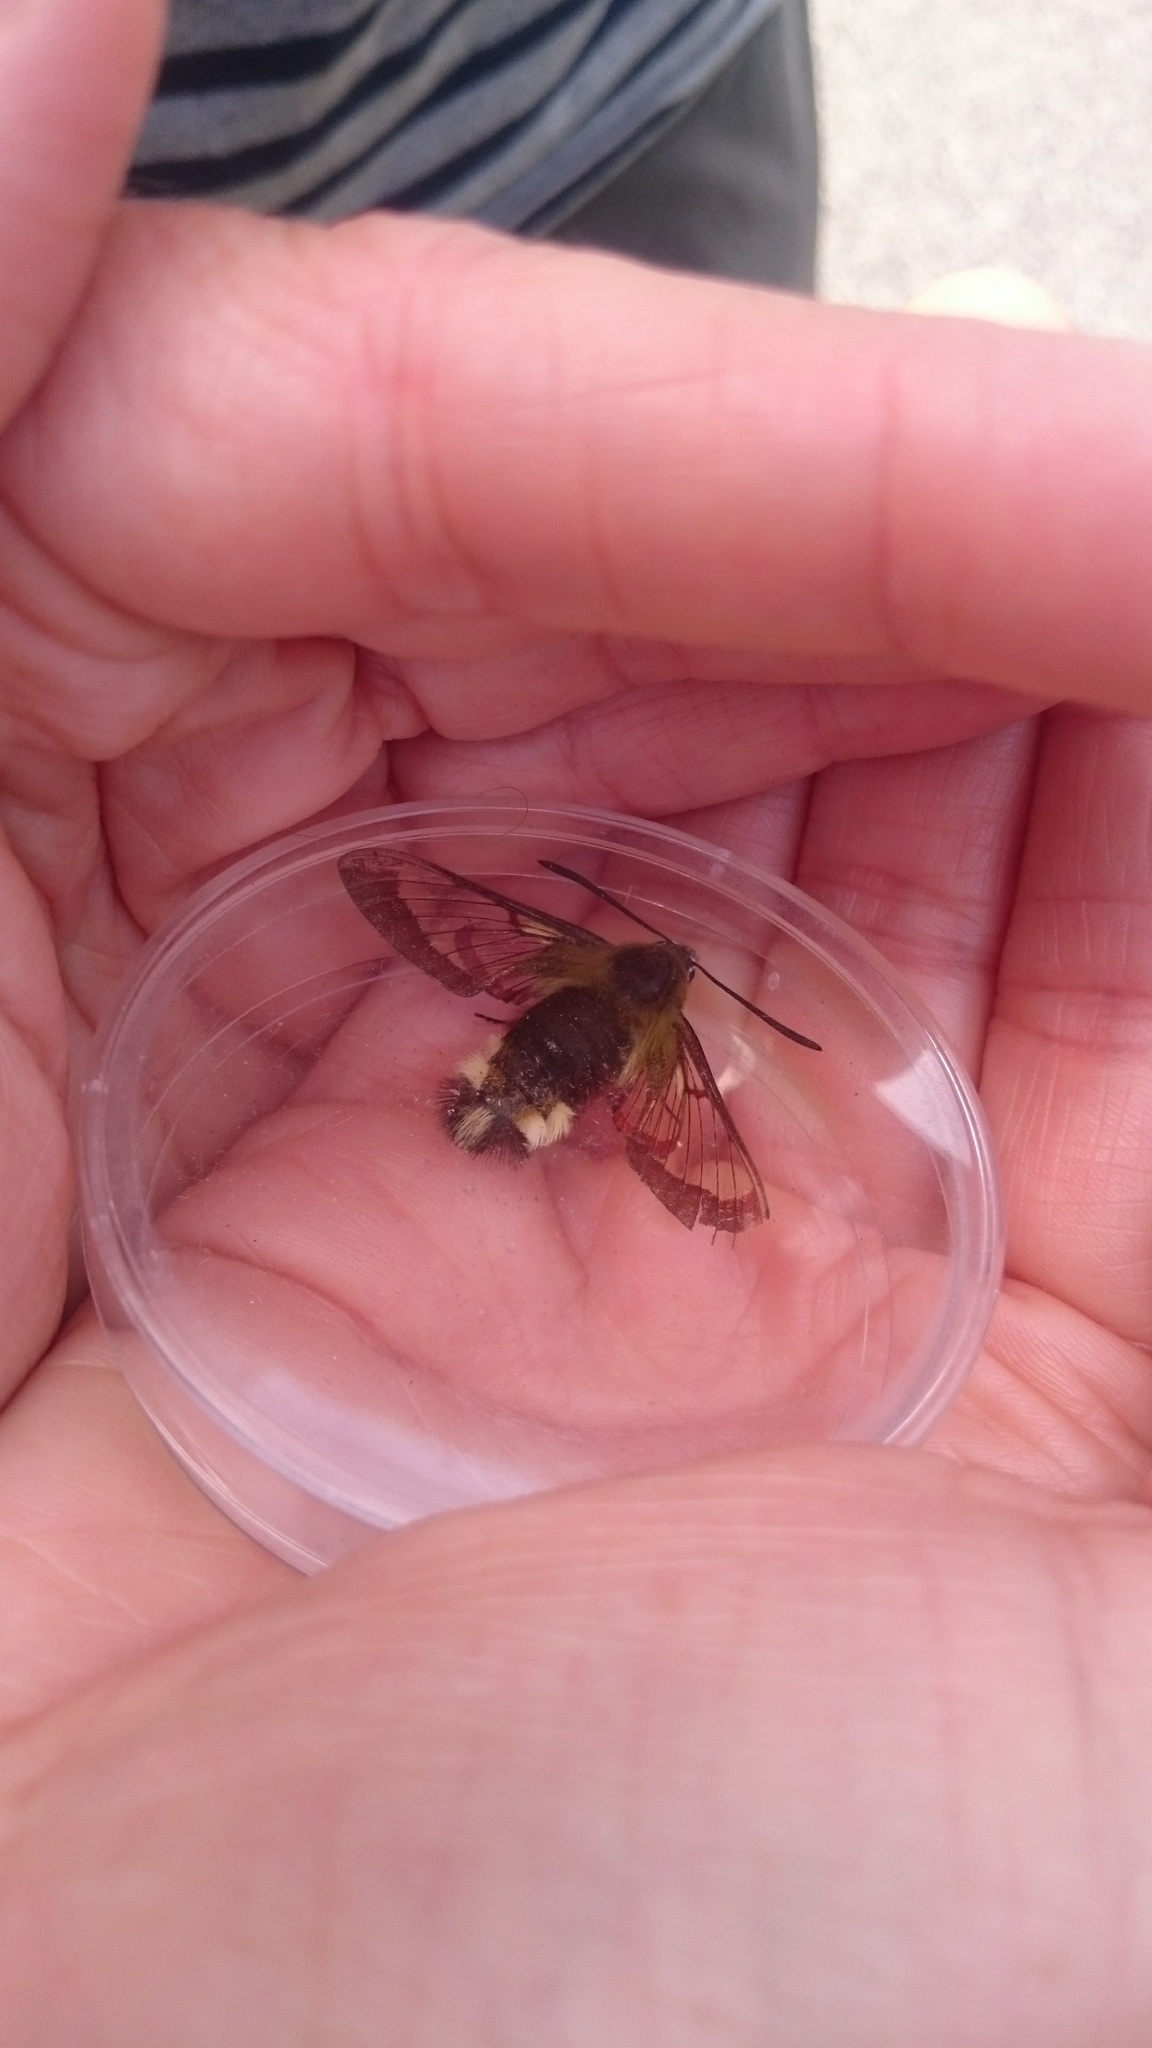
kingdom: Animalia
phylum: Arthropoda
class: Insecta
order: Lepidoptera
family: Sphingidae
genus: Hemaris
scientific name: Hemaris fuciformis
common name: Broad-bordered bee hawk-moth
